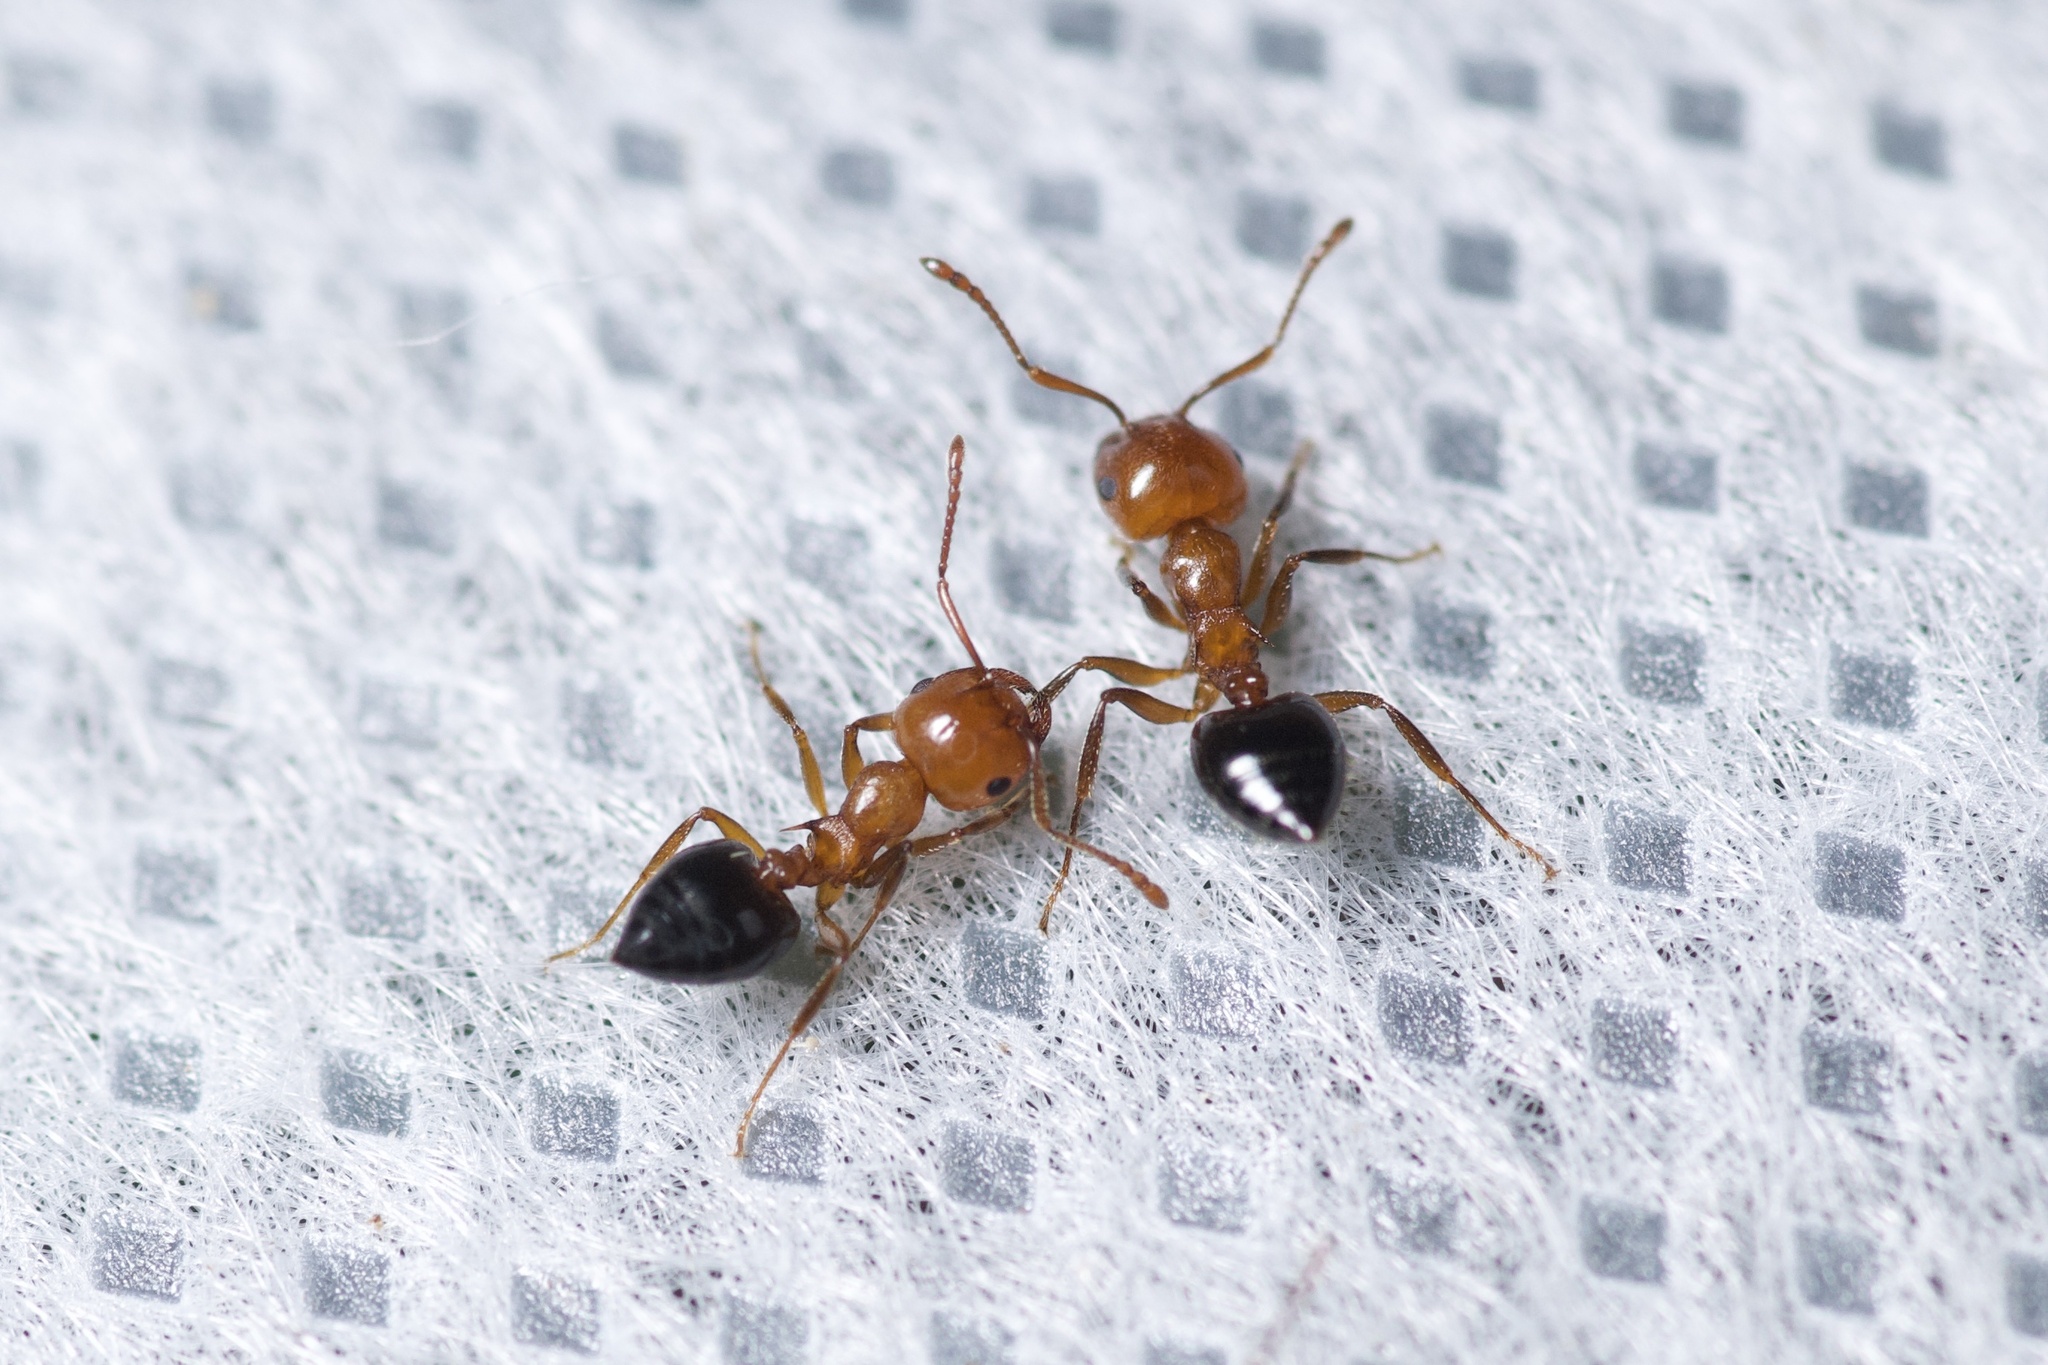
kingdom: Animalia
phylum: Arthropoda
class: Insecta
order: Hymenoptera
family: Formicidae
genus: Crematogaster
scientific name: Crematogaster laeviuscula
